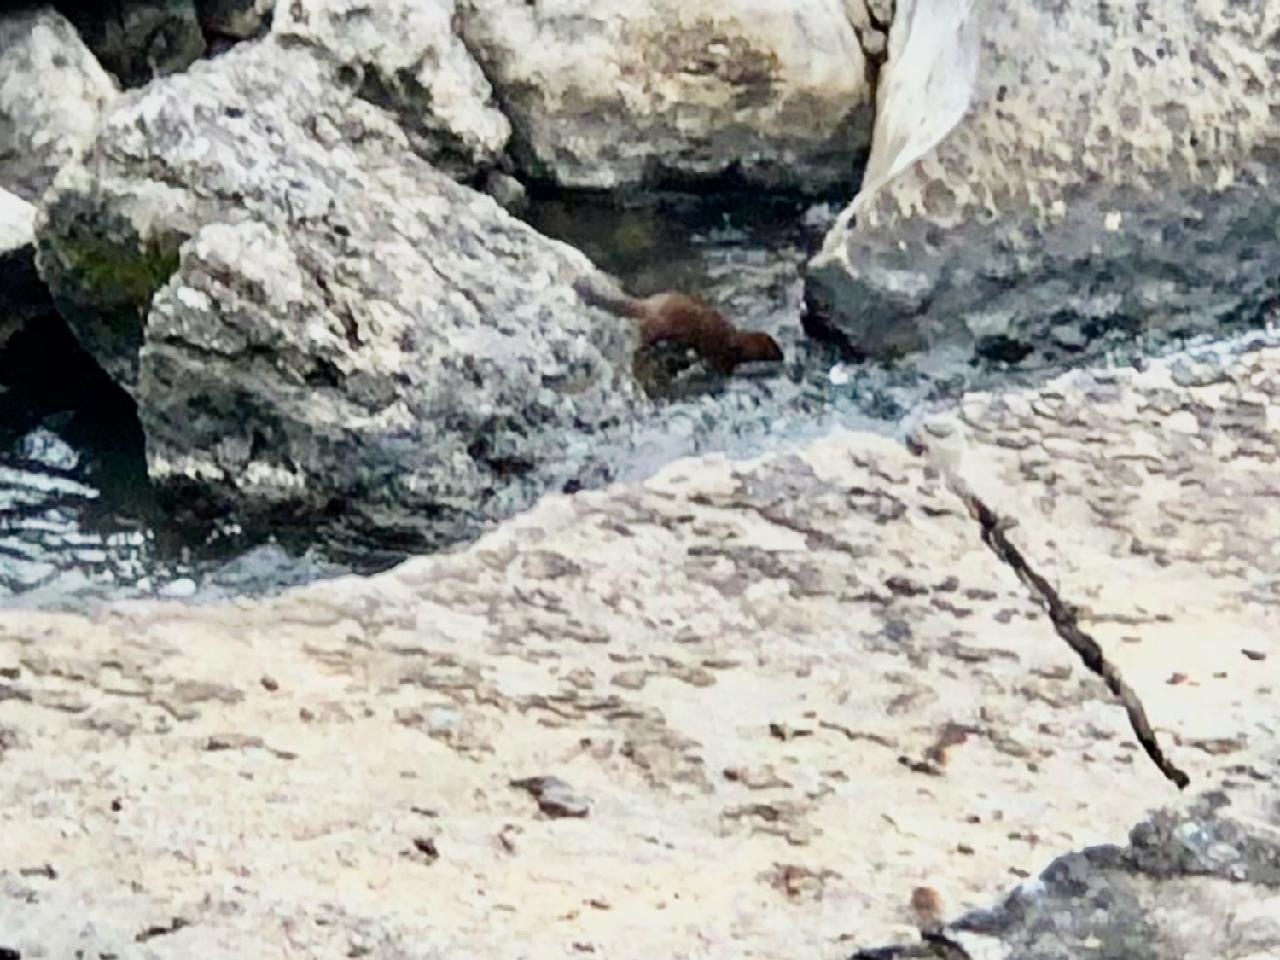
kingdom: Animalia
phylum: Chordata
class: Mammalia
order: Carnivora
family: Mustelidae
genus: Mustela
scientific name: Mustela
